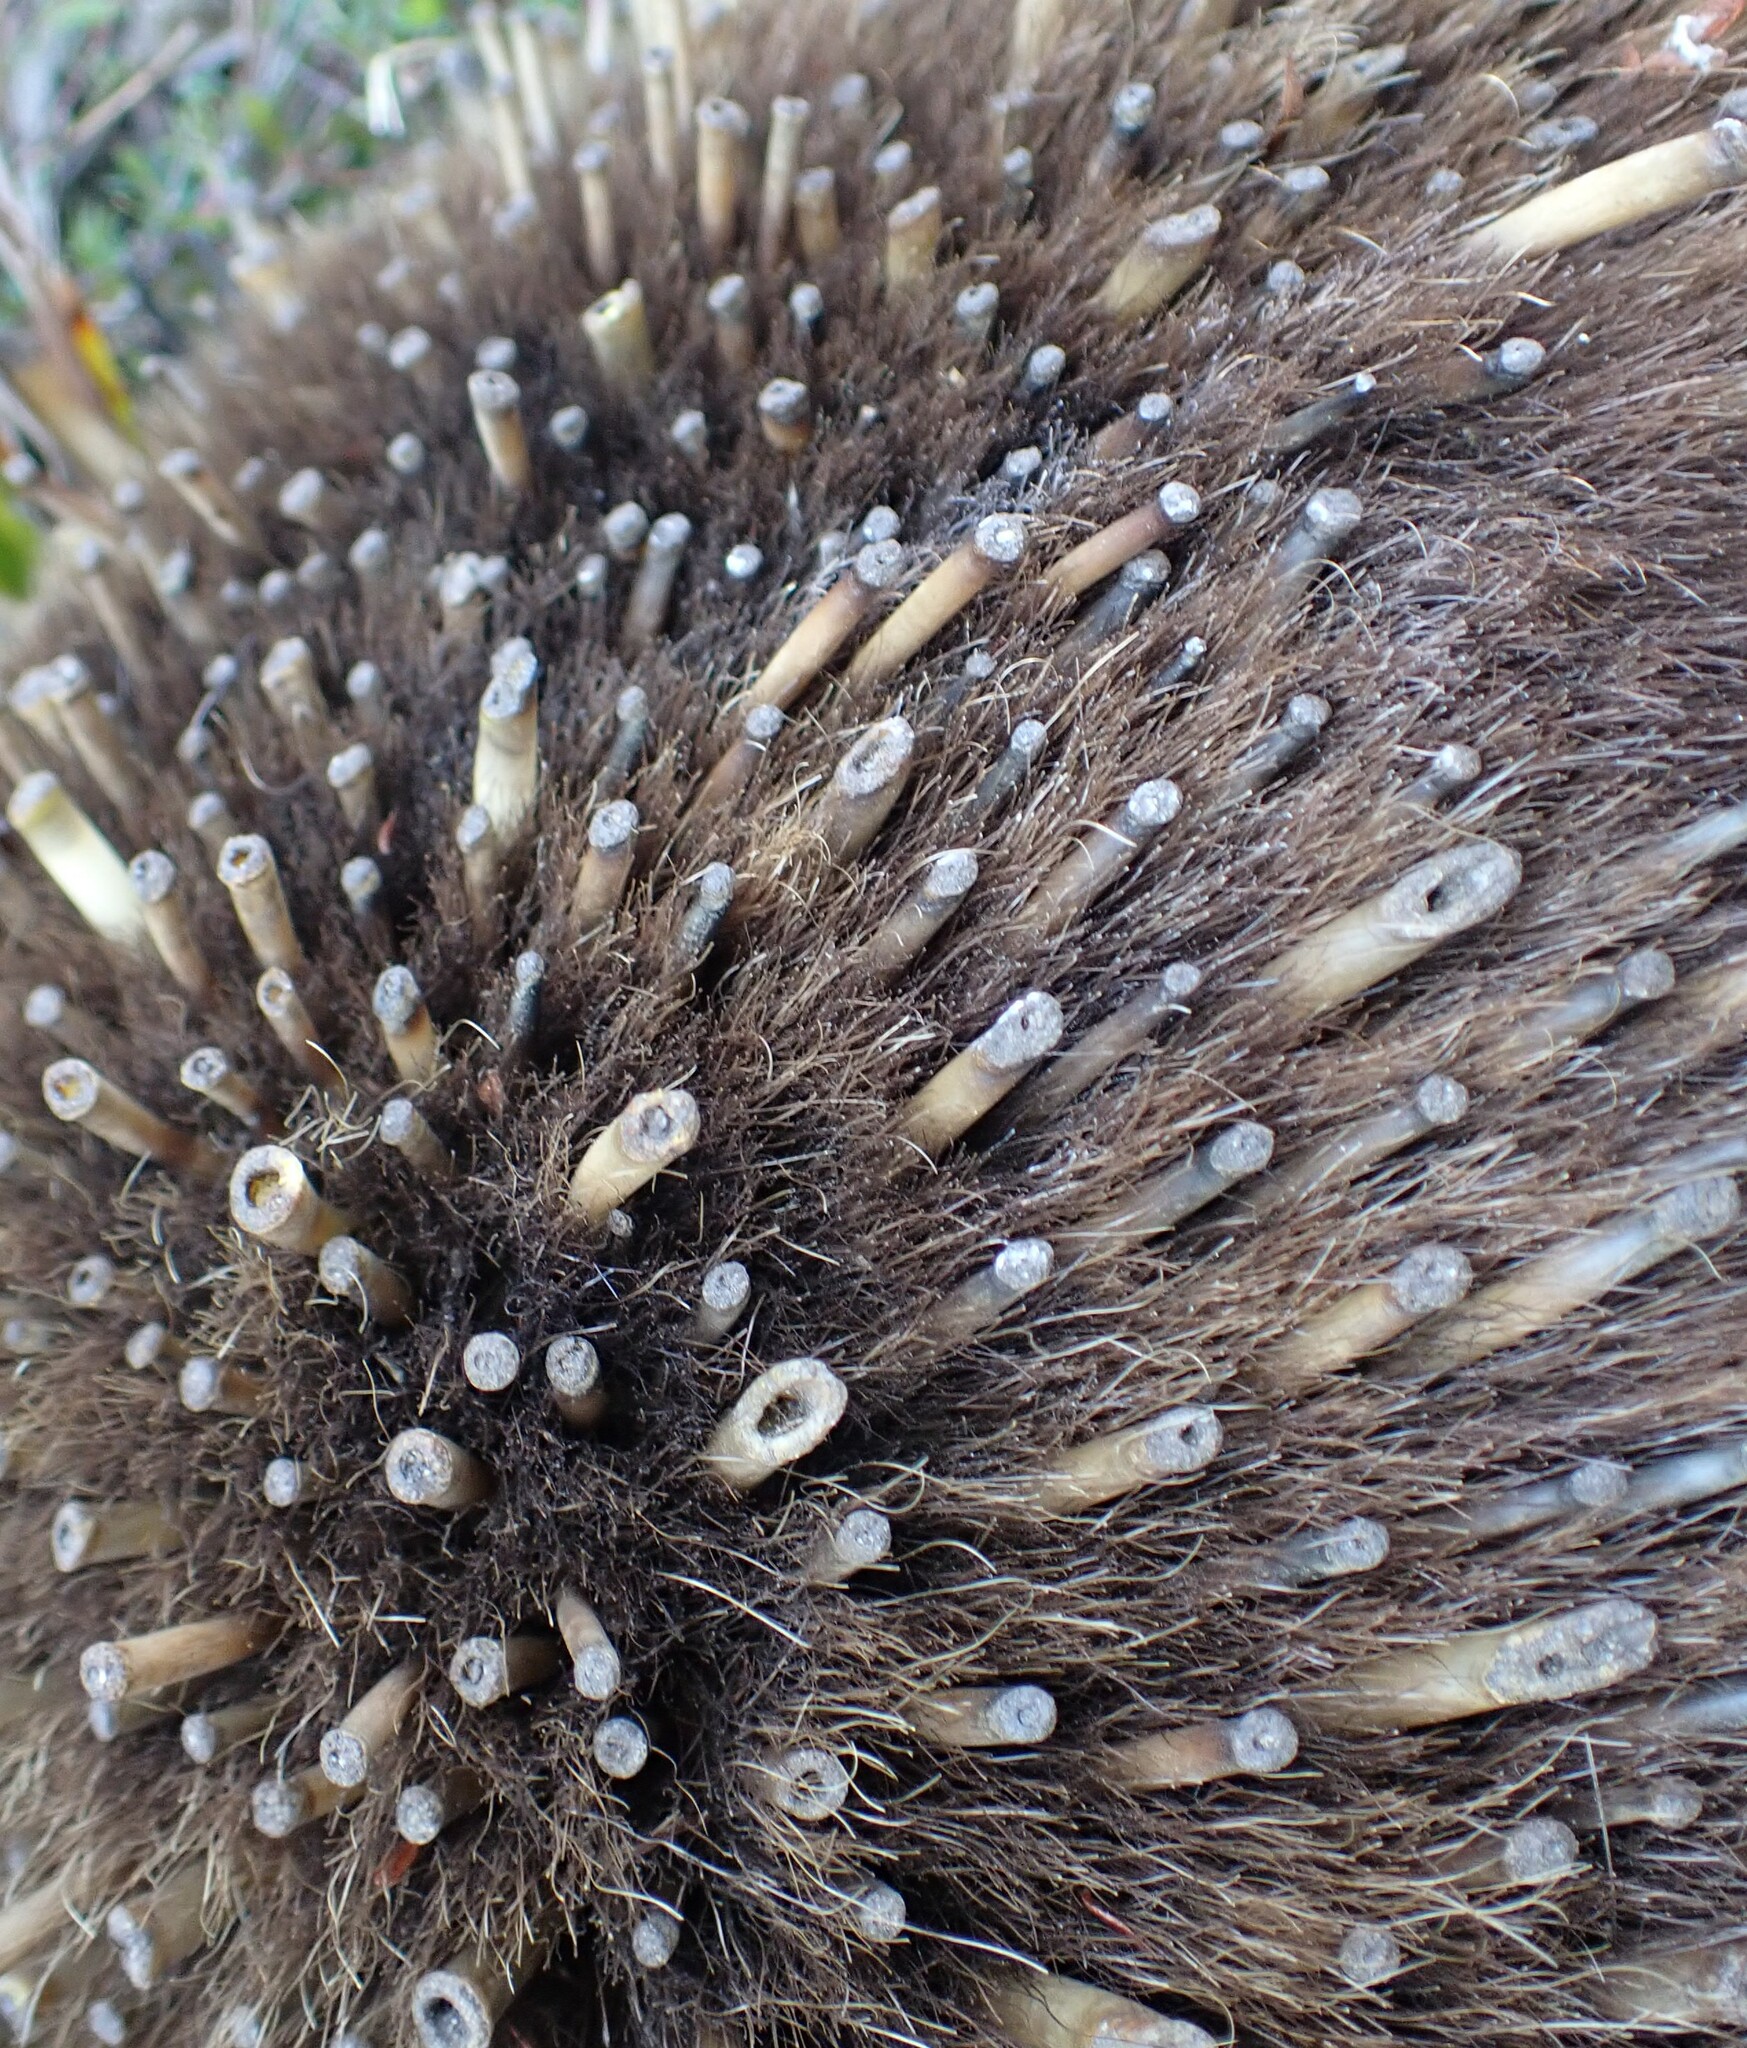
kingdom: Animalia
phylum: Chordata
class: Mammalia
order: Monotremata
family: Tachyglossidae
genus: Tachyglossus
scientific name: Tachyglossus aculeatus
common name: Short-beaked echidna
